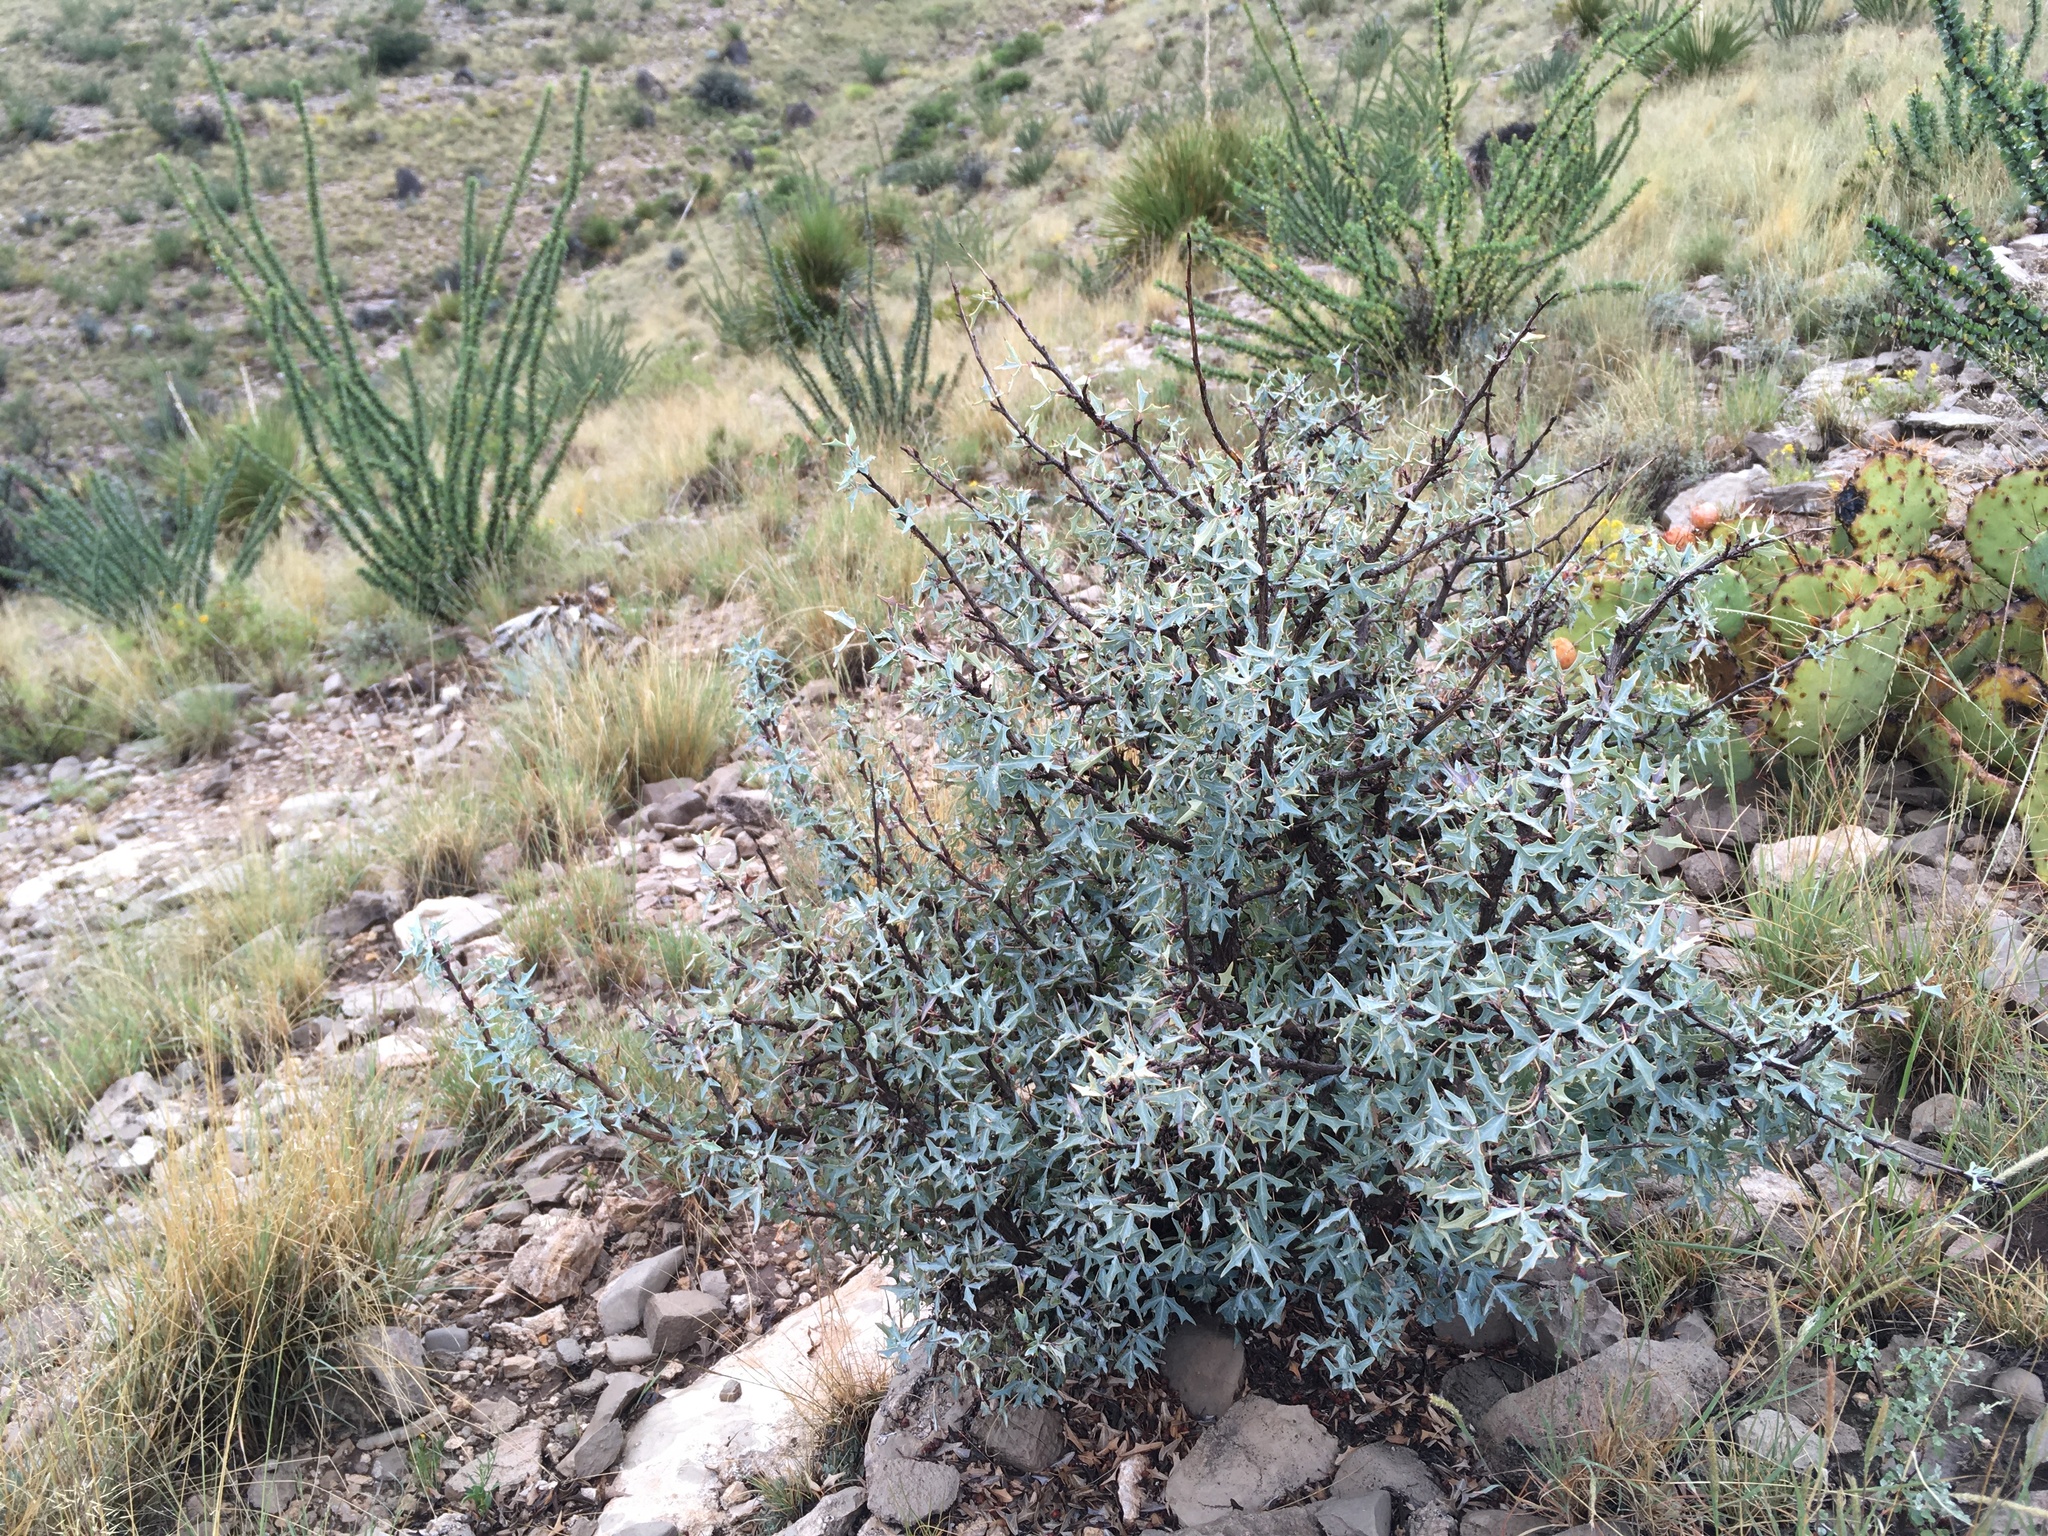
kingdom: Plantae
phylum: Tracheophyta
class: Magnoliopsida
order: Ranunculales
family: Berberidaceae
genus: Alloberberis
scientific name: Alloberberis trifoliolata
